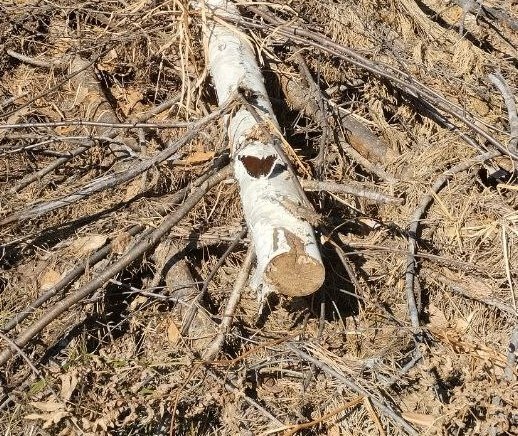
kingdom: Animalia
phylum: Arthropoda
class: Insecta
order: Lepidoptera
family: Nymphalidae
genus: Nymphalis
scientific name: Nymphalis antiopa
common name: Camberwell beauty
